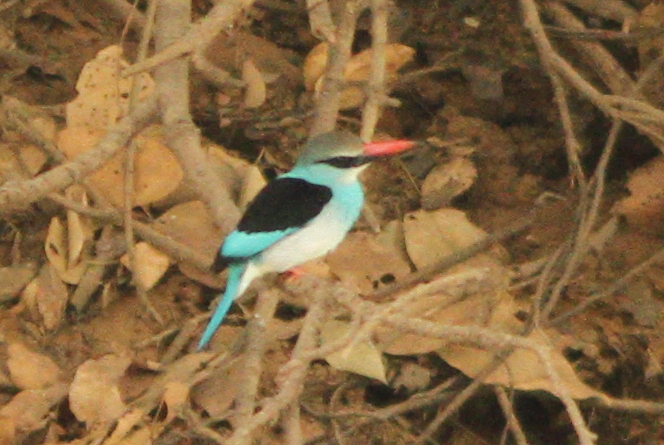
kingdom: Animalia
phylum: Chordata
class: Aves
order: Coraciiformes
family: Alcedinidae
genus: Halcyon
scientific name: Halcyon malimbica
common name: Blue-breasted kingfisher
